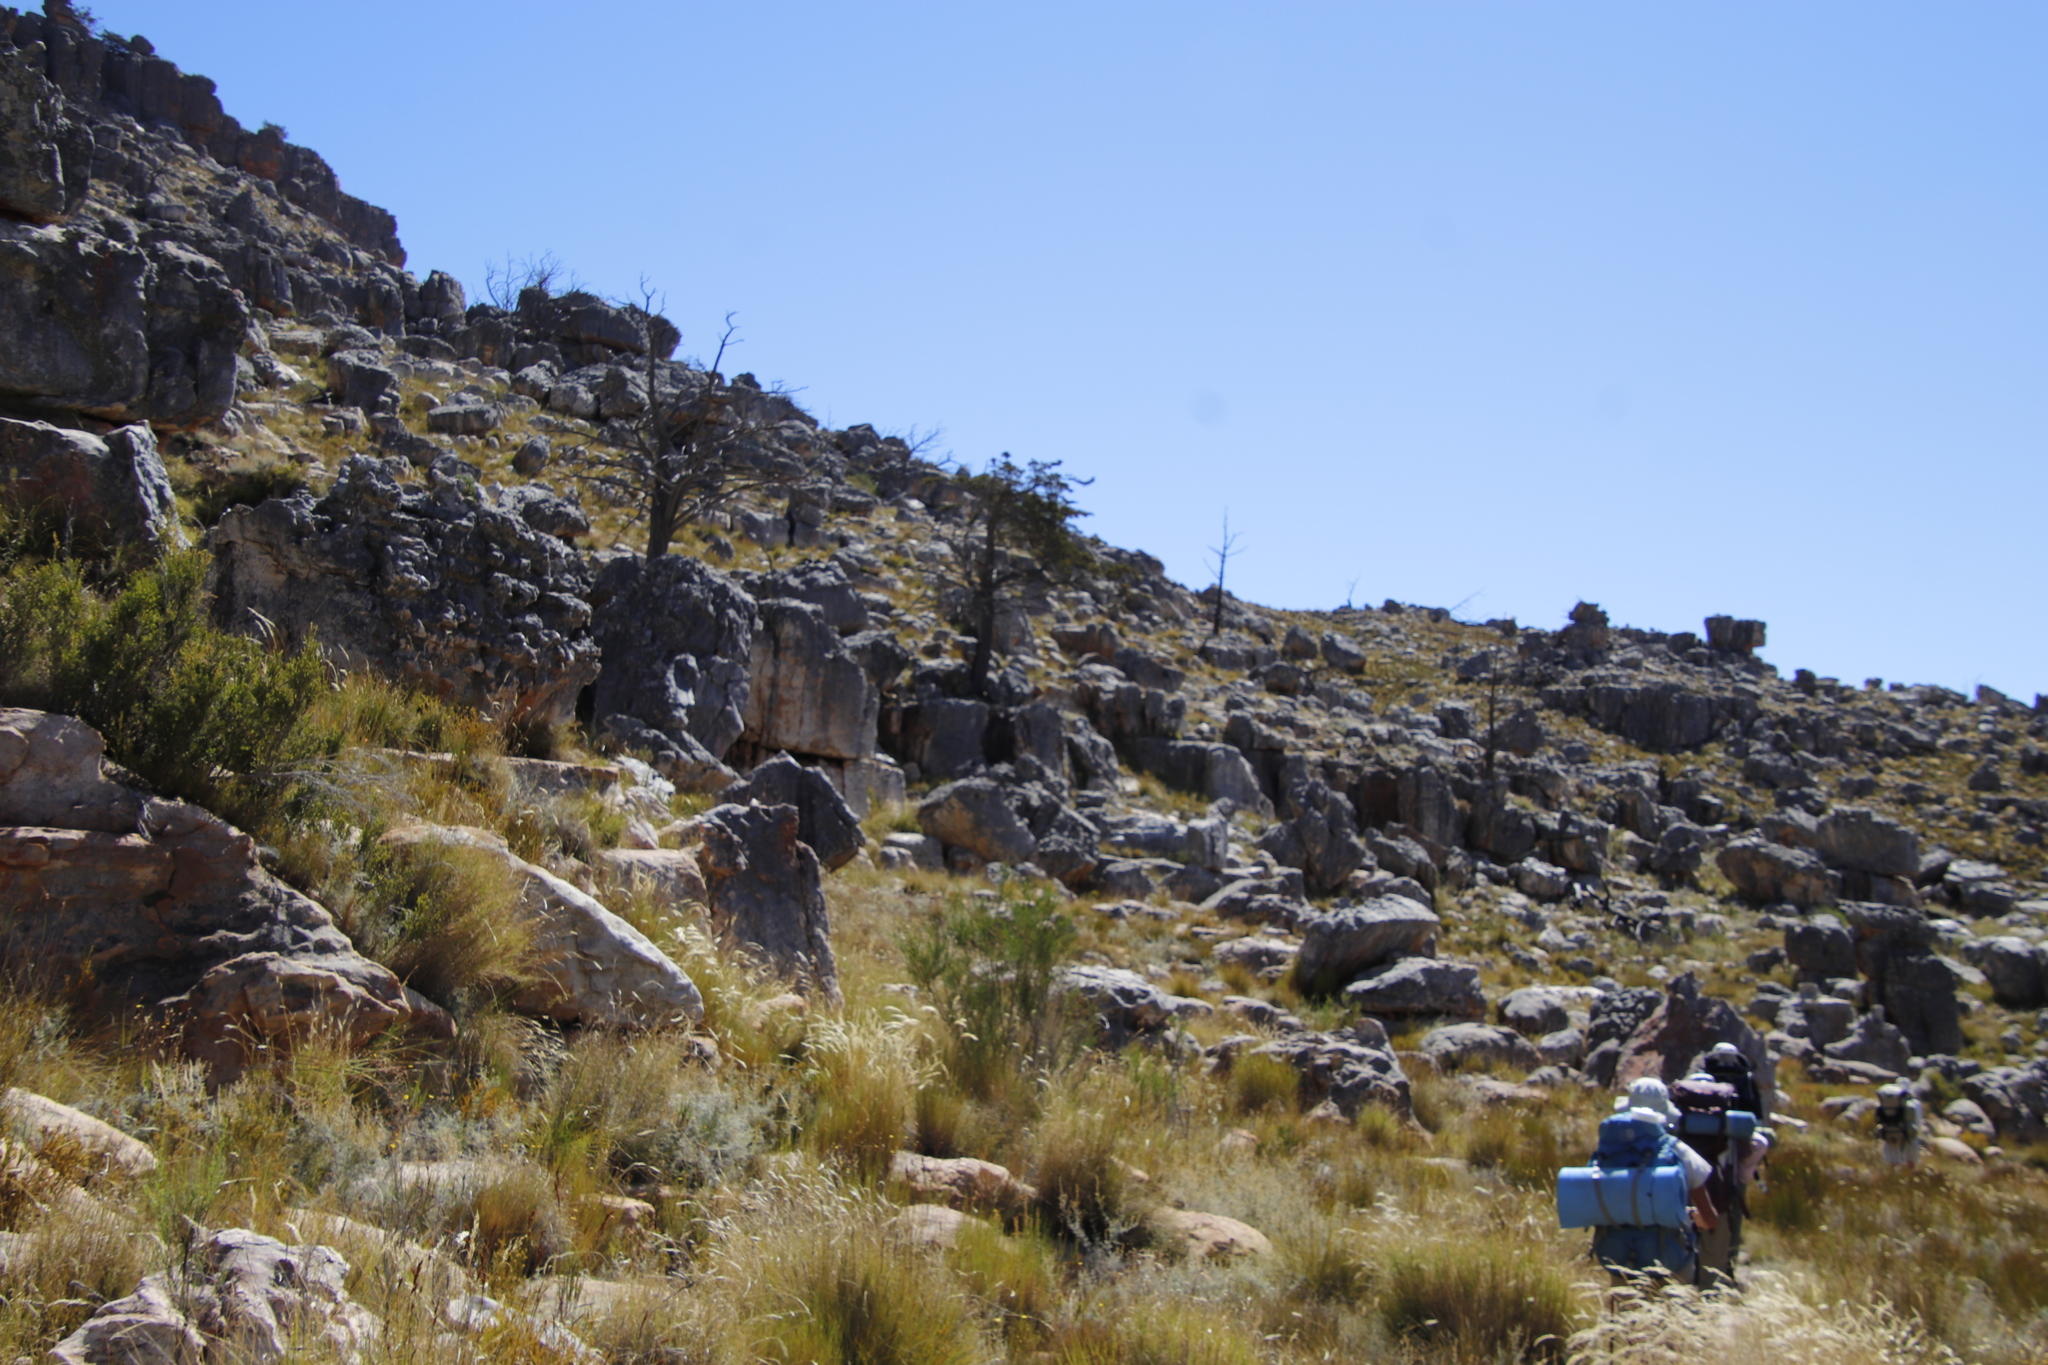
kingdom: Plantae
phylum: Tracheophyta
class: Pinopsida
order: Pinales
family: Cupressaceae
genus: Widdringtonia
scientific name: Widdringtonia nodiflora
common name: Cape cypress
